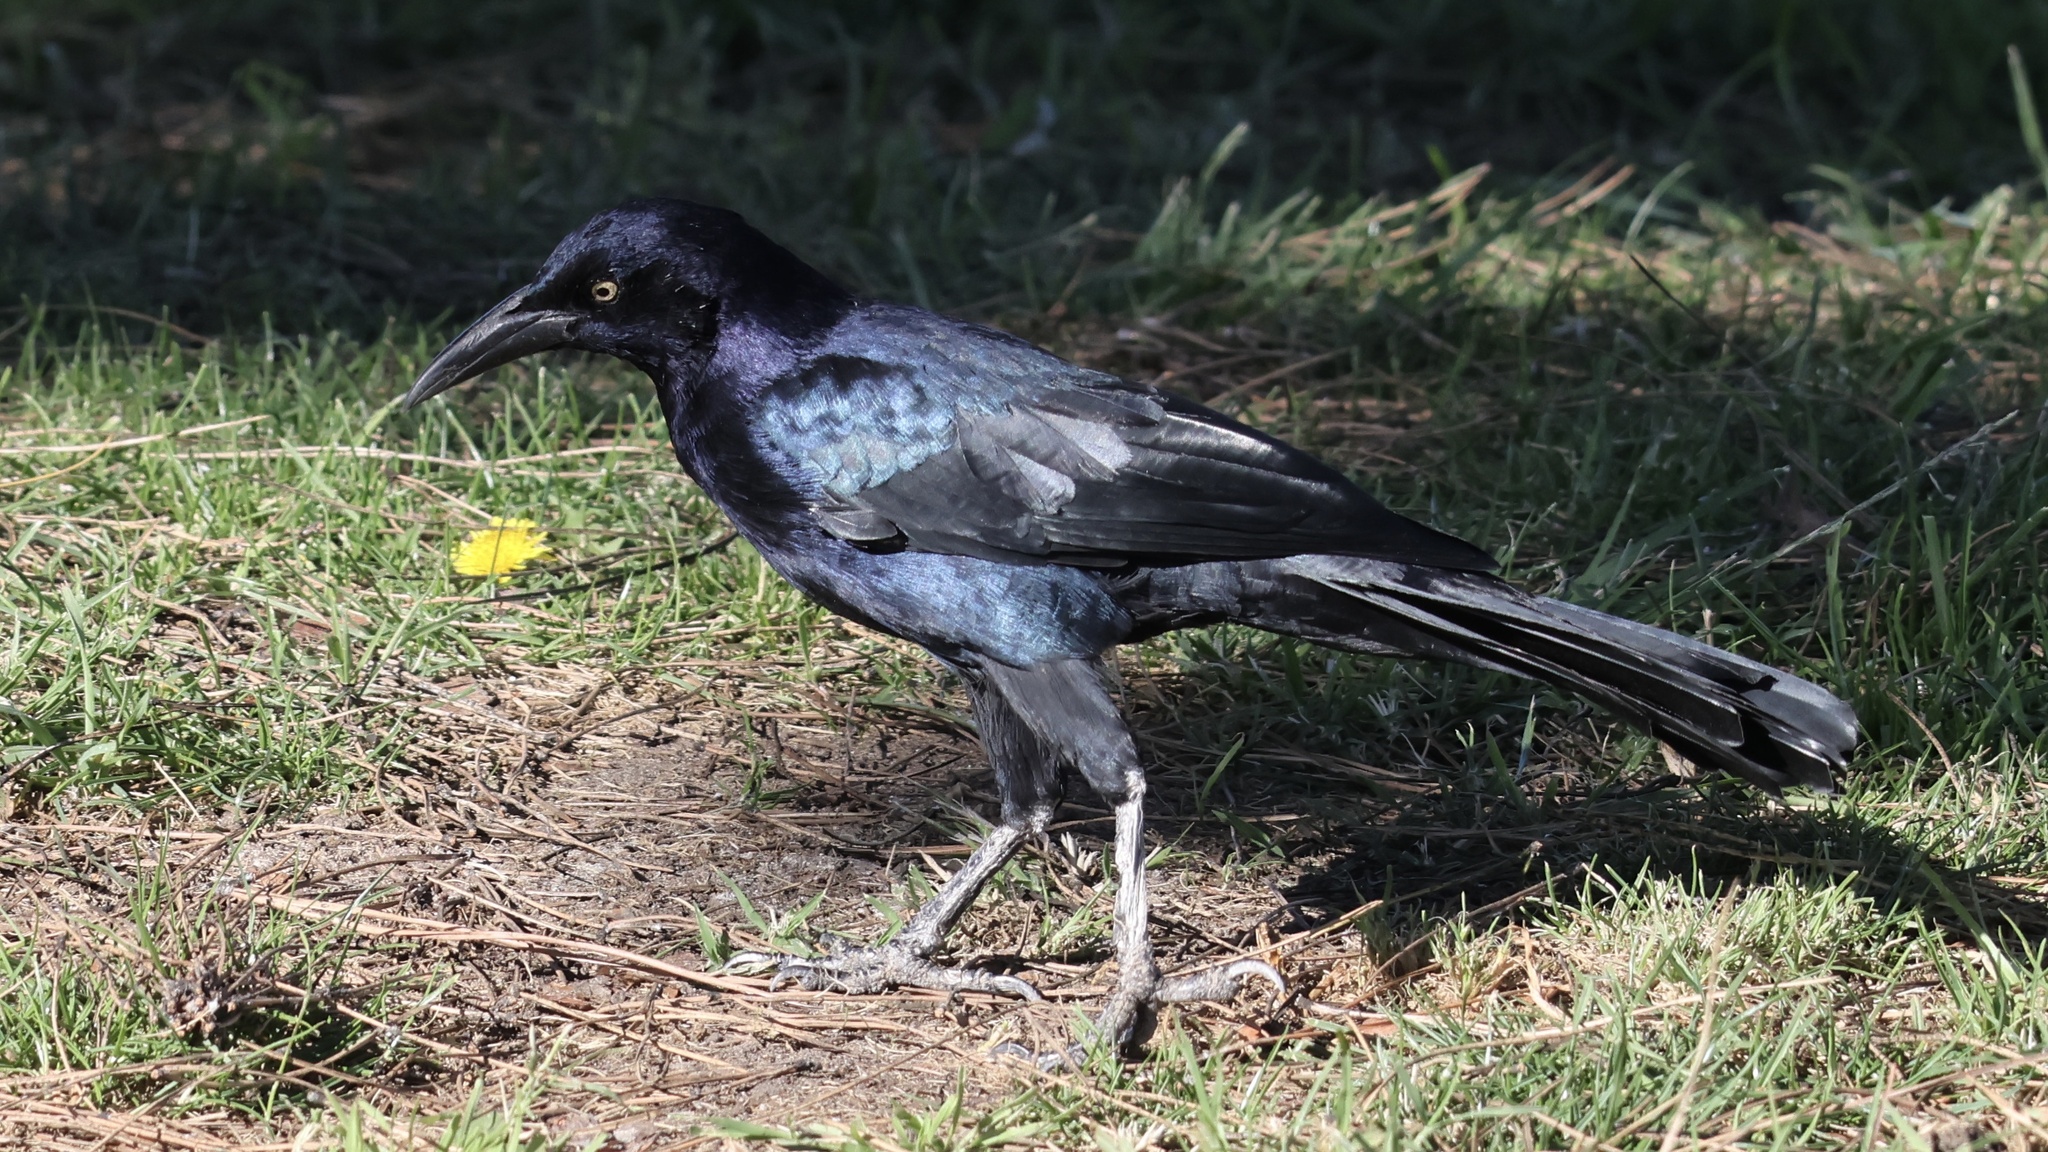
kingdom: Animalia
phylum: Chordata
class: Aves
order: Passeriformes
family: Icteridae
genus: Quiscalus
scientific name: Quiscalus mexicanus
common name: Great-tailed grackle
